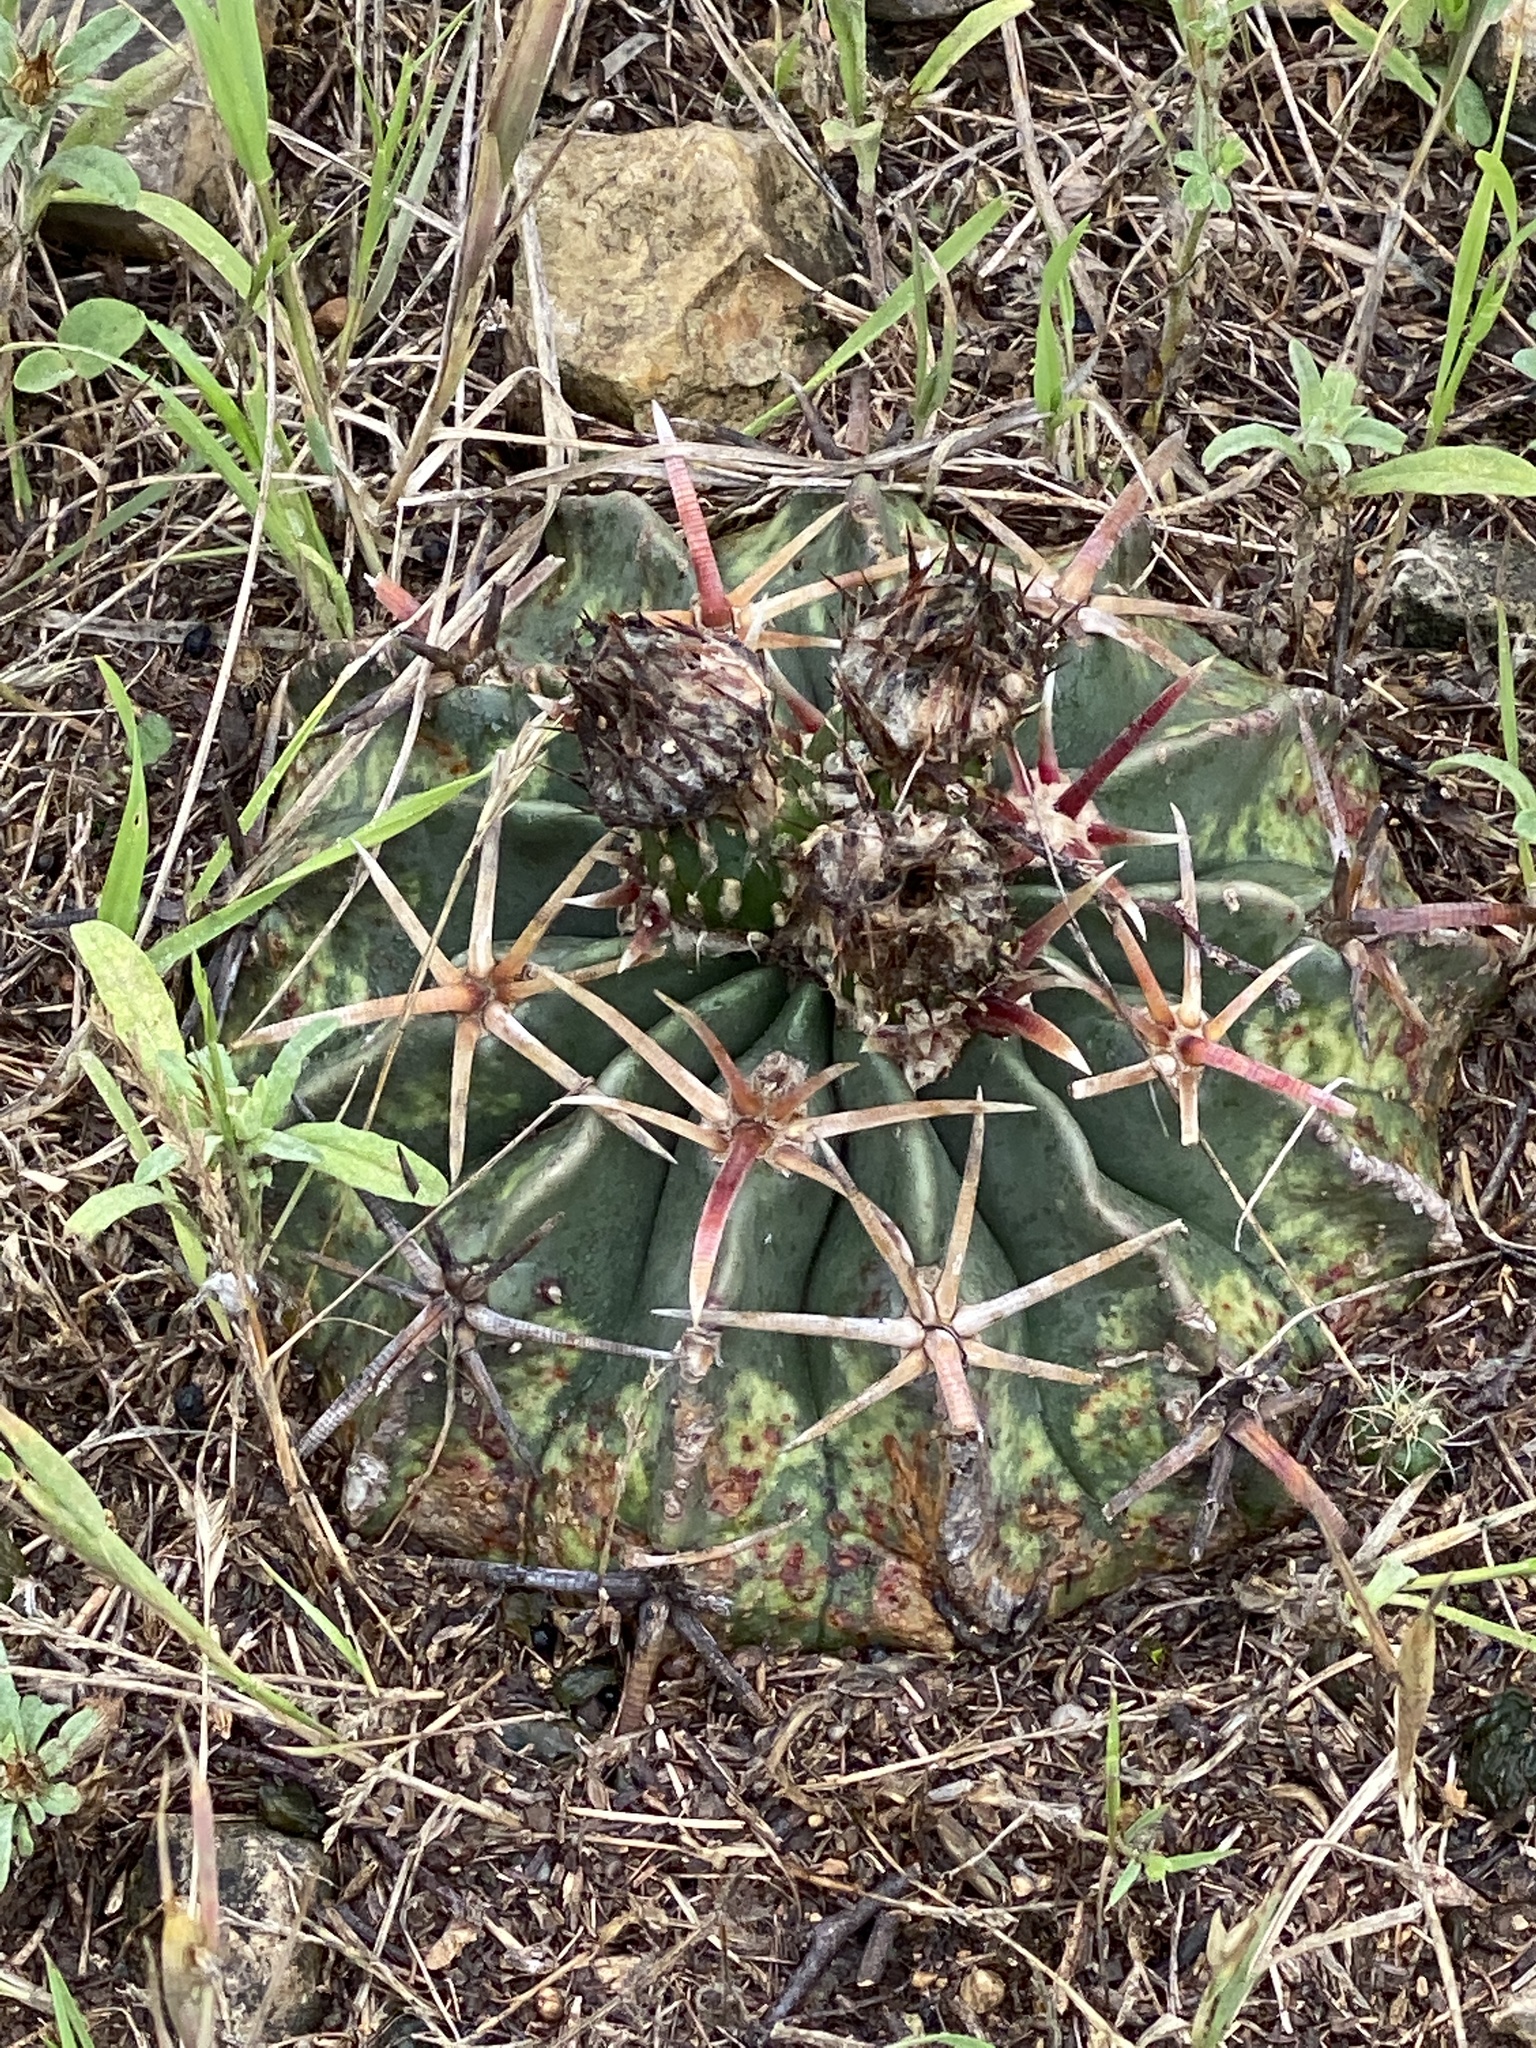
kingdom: Plantae
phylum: Tracheophyta
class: Magnoliopsida
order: Caryophyllales
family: Cactaceae
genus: Echinocactus
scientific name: Echinocactus texensis
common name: Devil's pincushion
